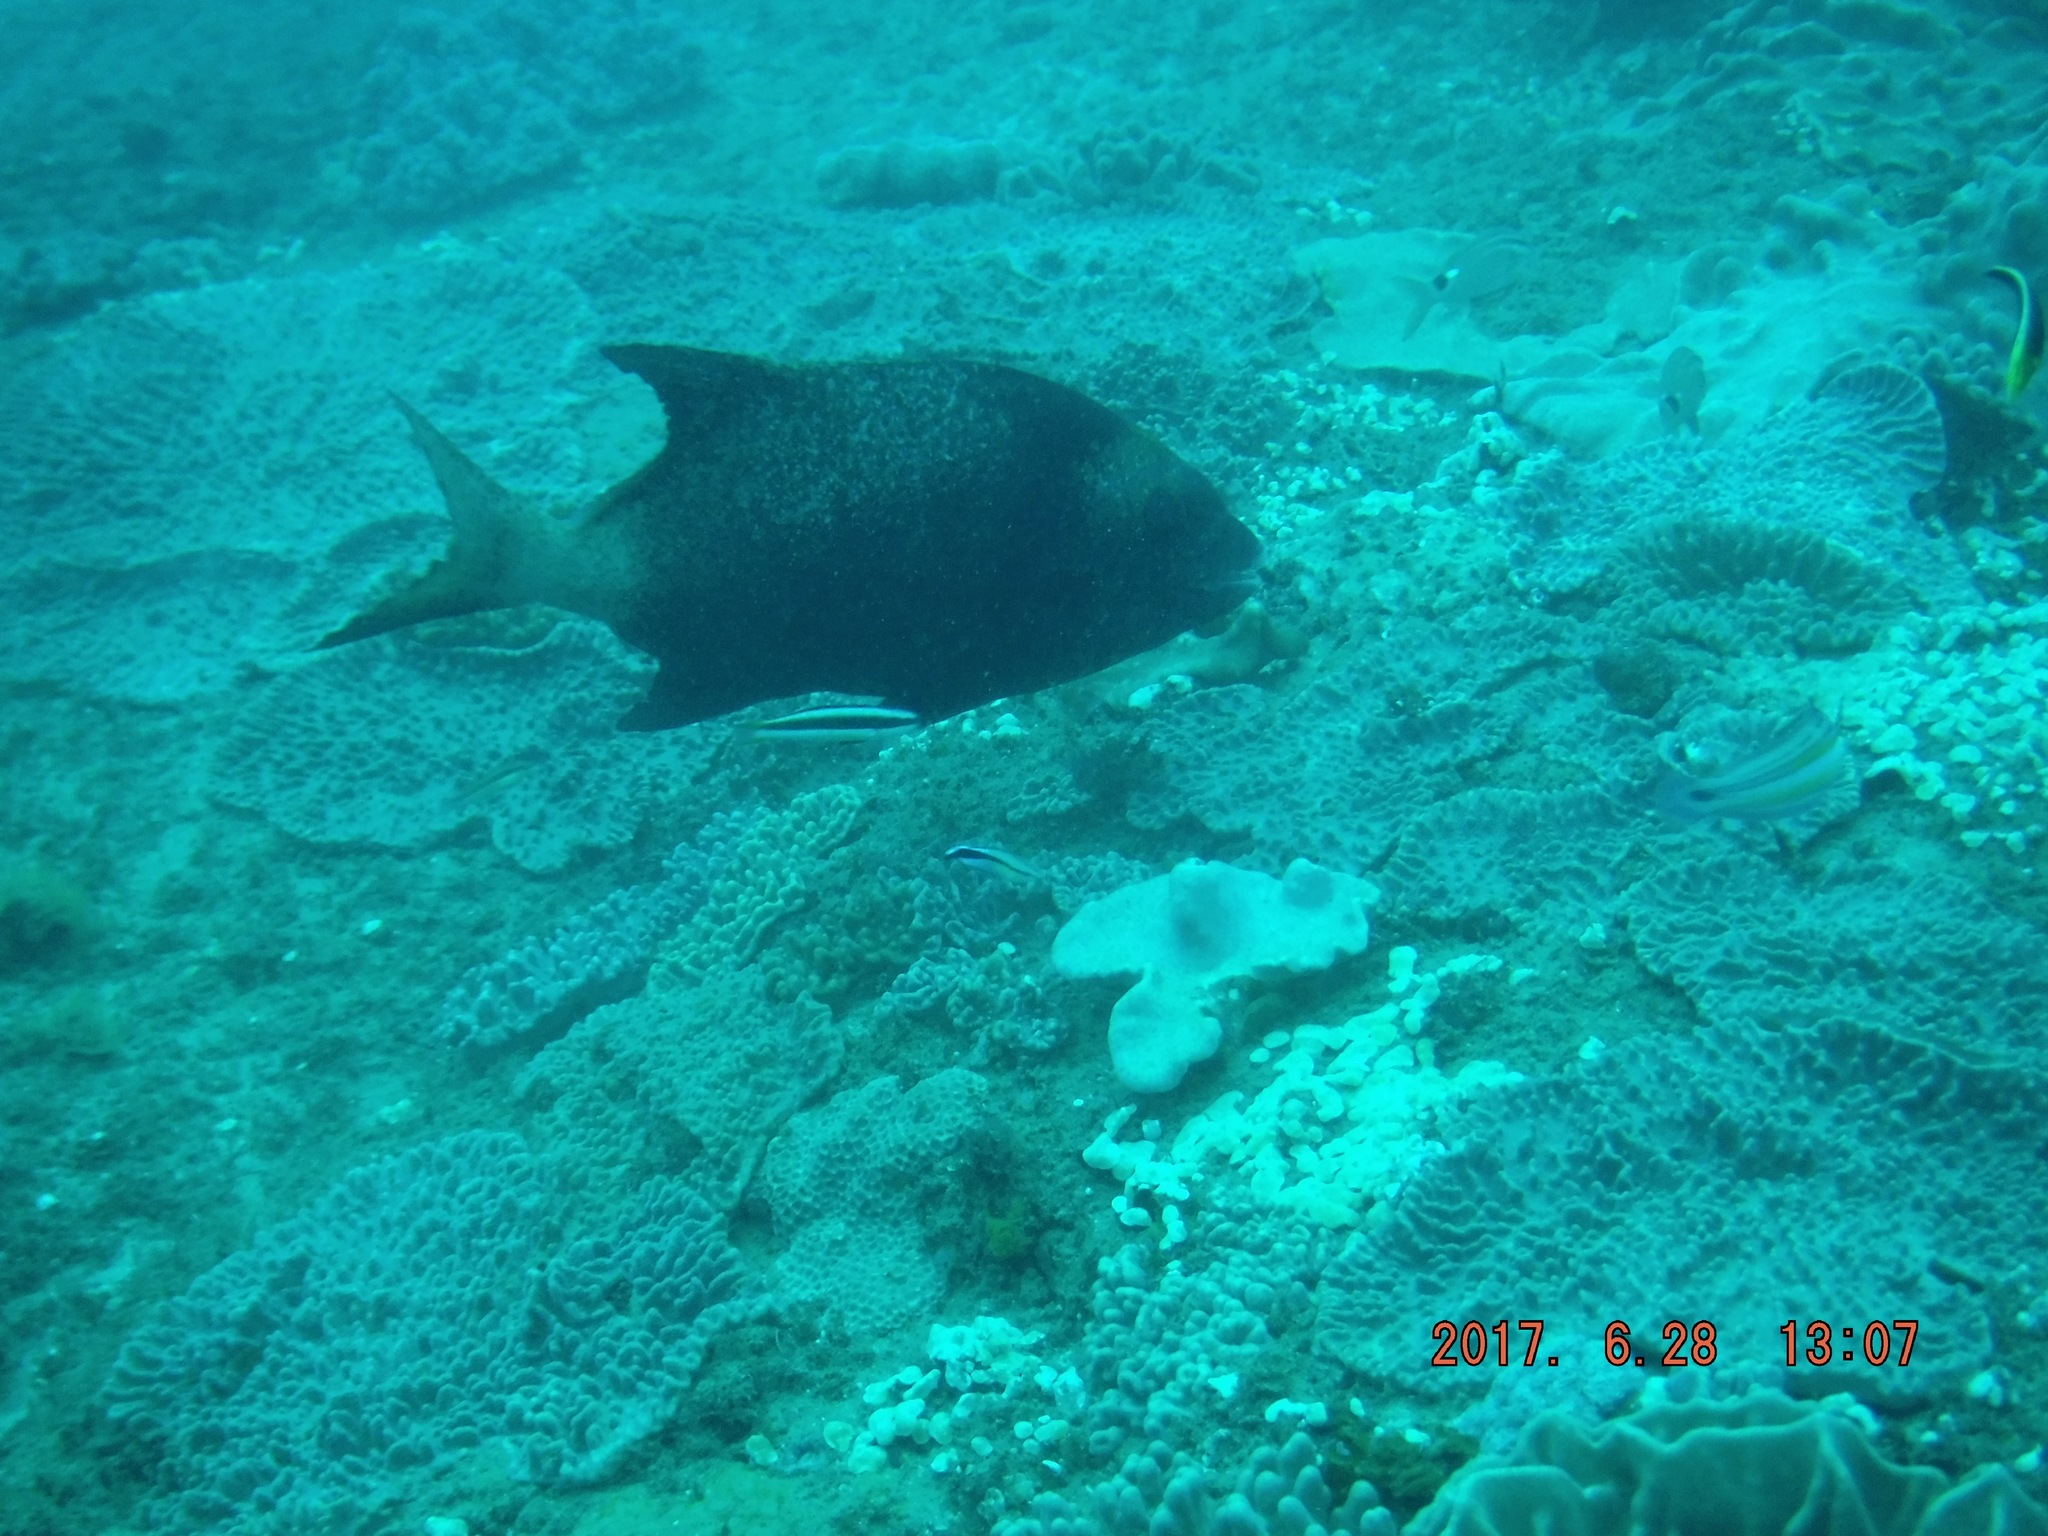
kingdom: Animalia
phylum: Chordata
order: Perciformes
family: Oplegnathidae
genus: Oplegnathus
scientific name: Oplegnathus robinsoni
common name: Natal knifejaw
